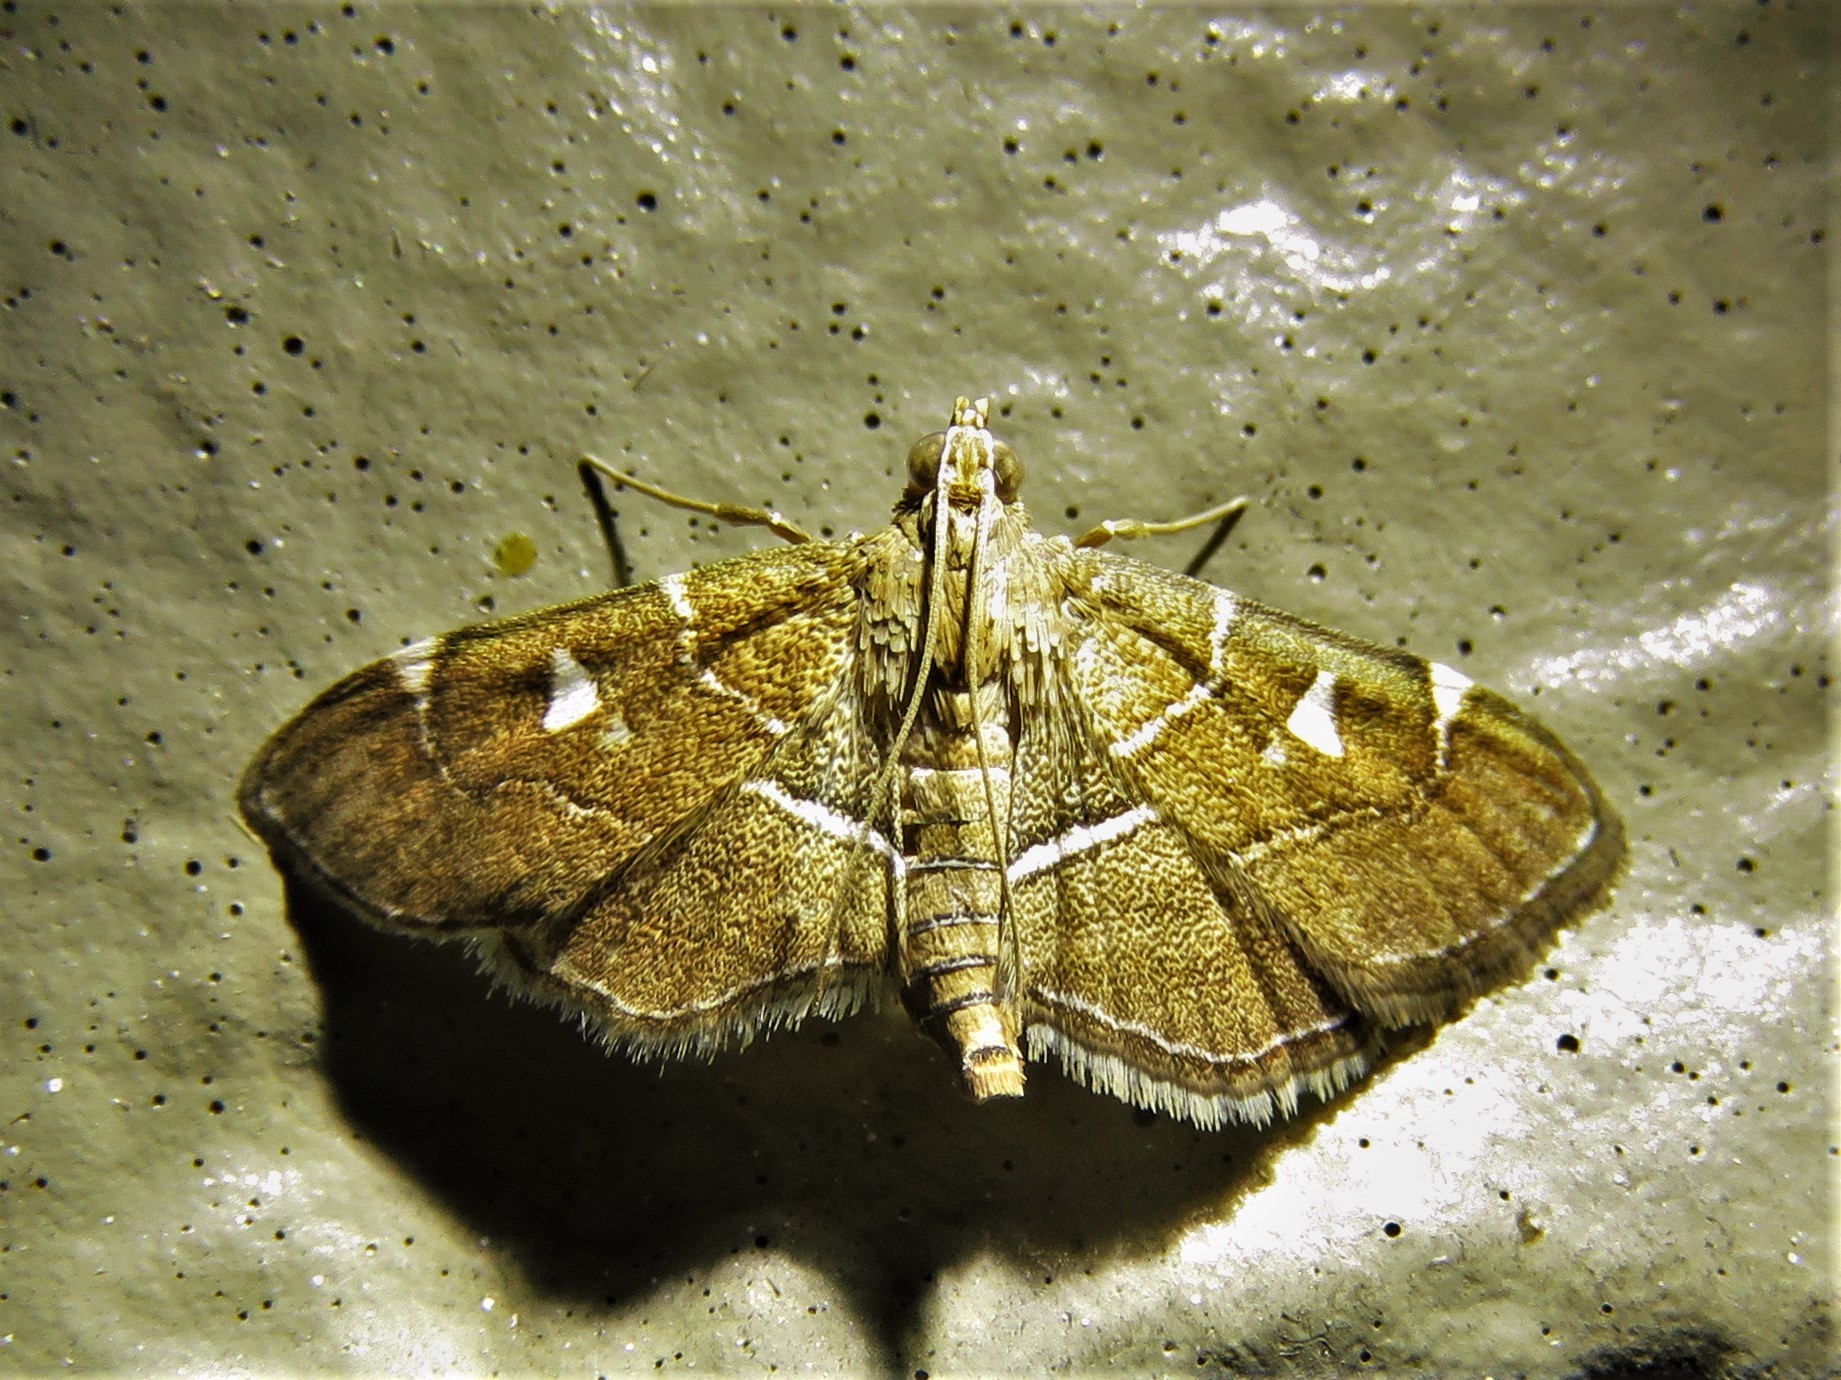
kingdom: Animalia
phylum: Arthropoda
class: Insecta
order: Lepidoptera
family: Crambidae
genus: Lamprosema
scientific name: Lamprosema victoriae
